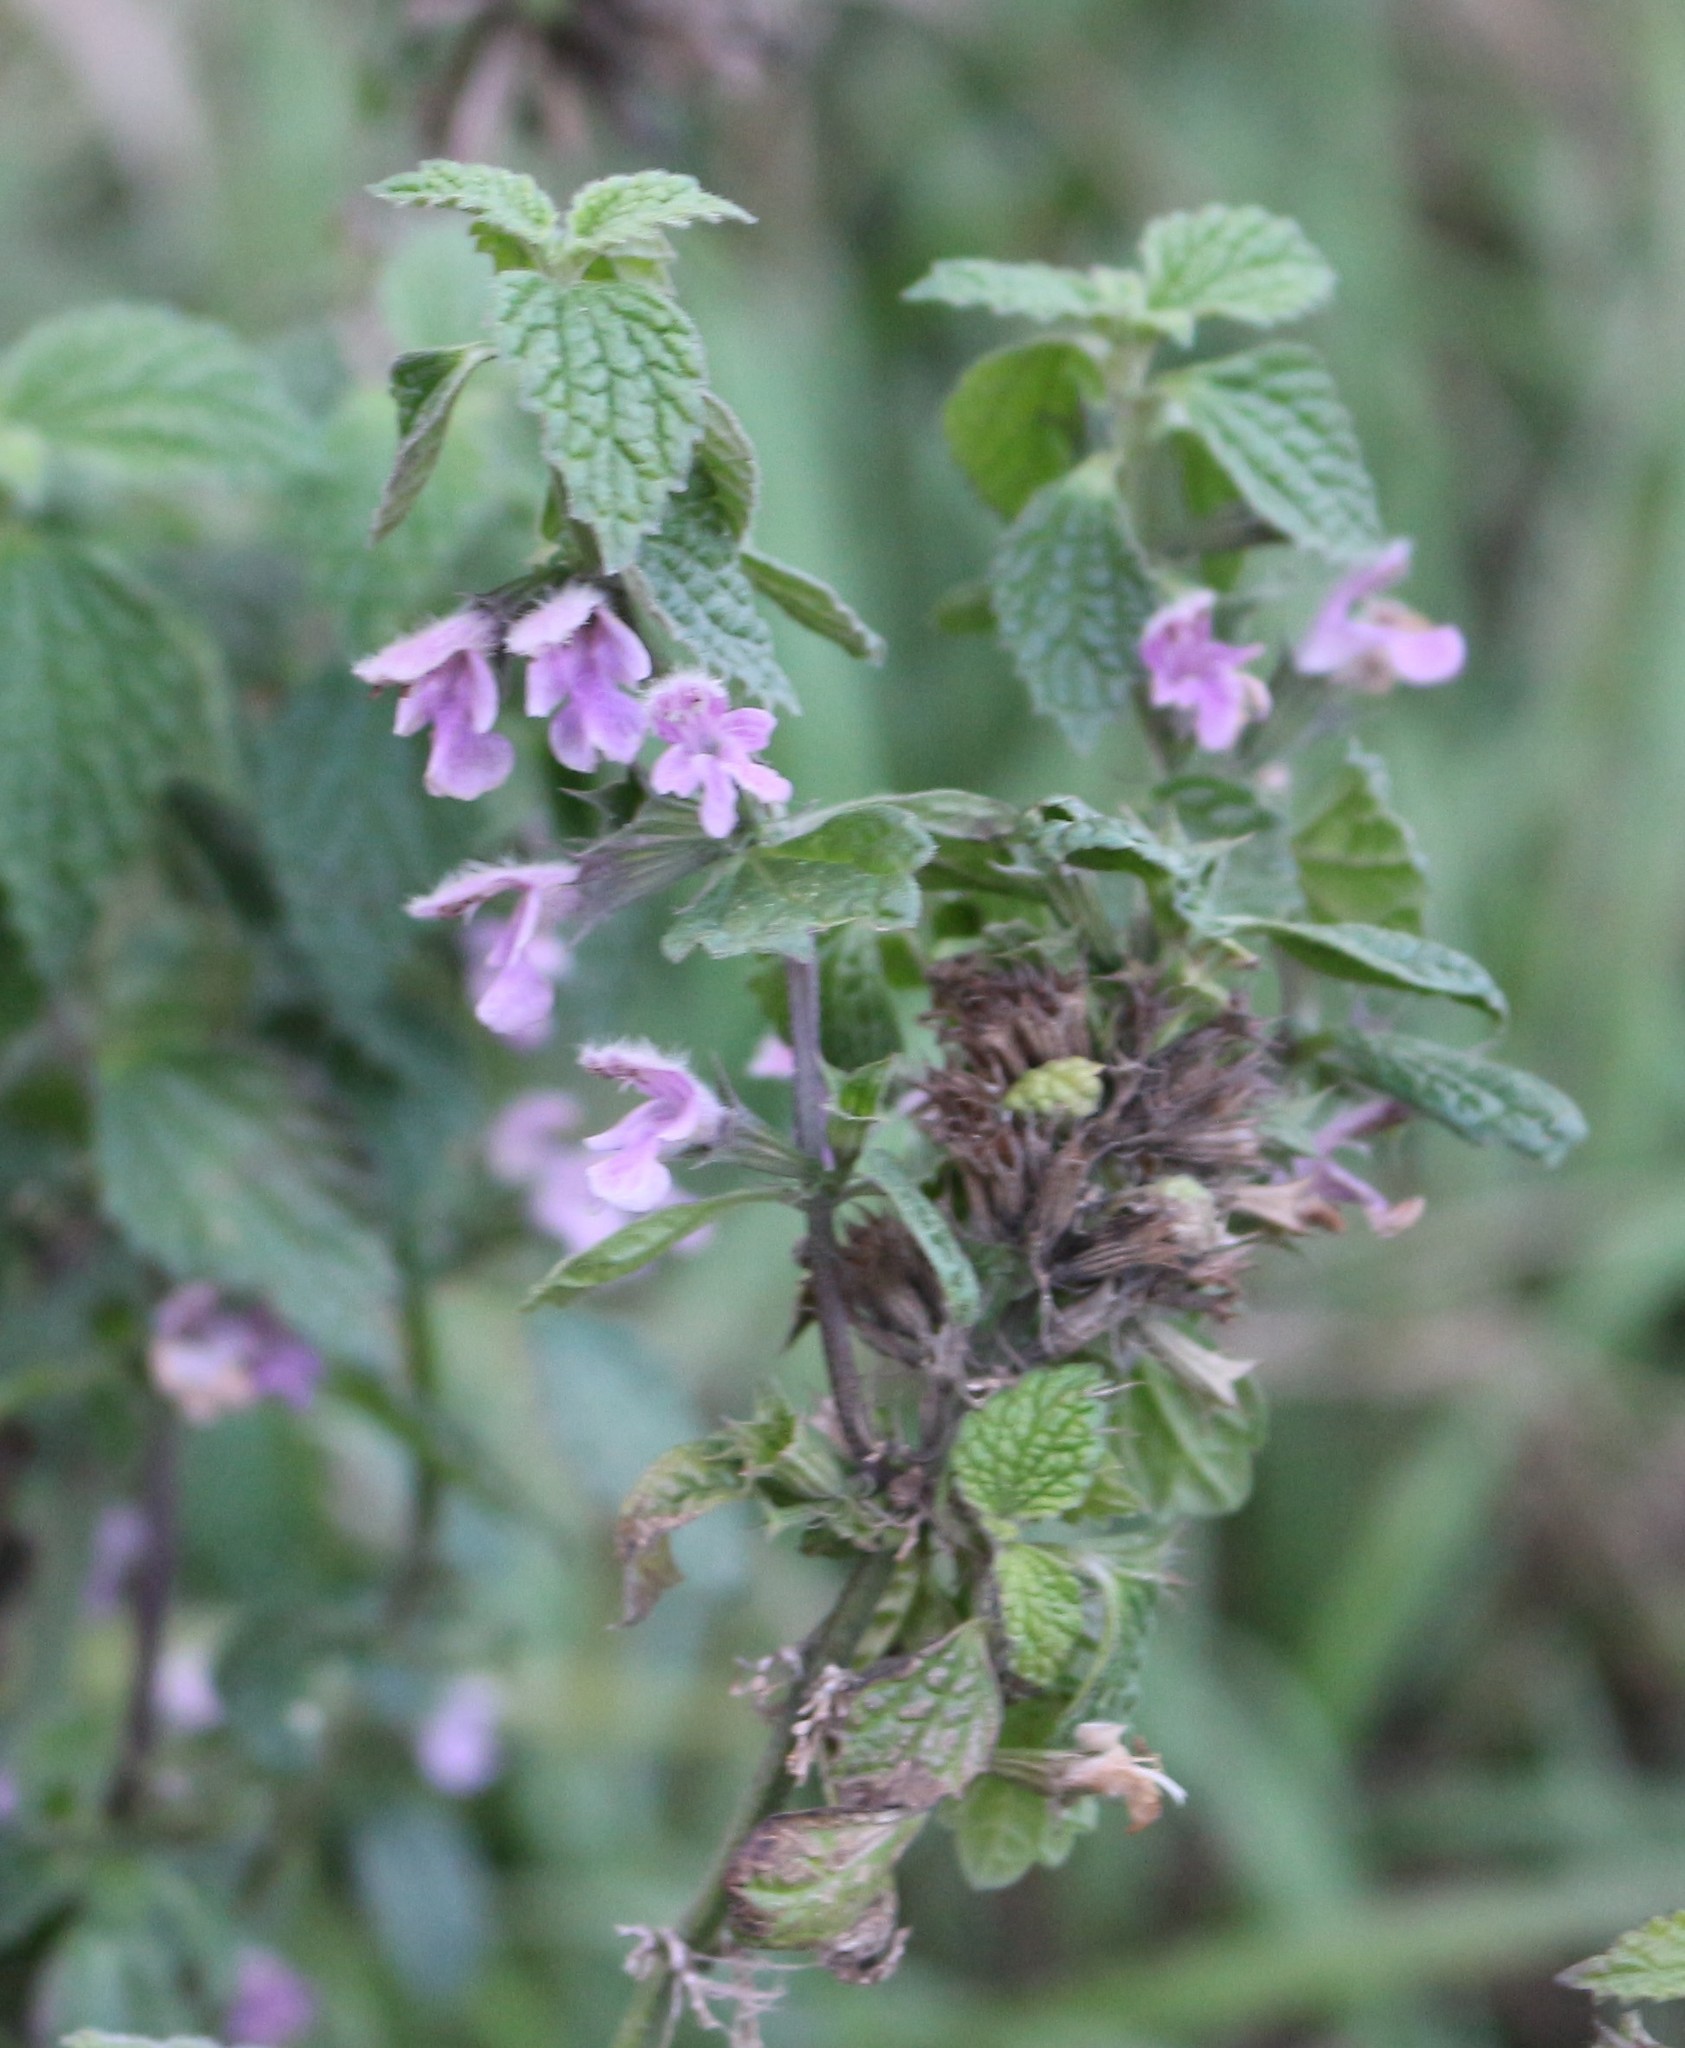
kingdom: Plantae
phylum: Tracheophyta
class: Magnoliopsida
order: Lamiales
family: Lamiaceae
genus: Ballota
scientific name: Ballota nigra
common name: Black horehound
